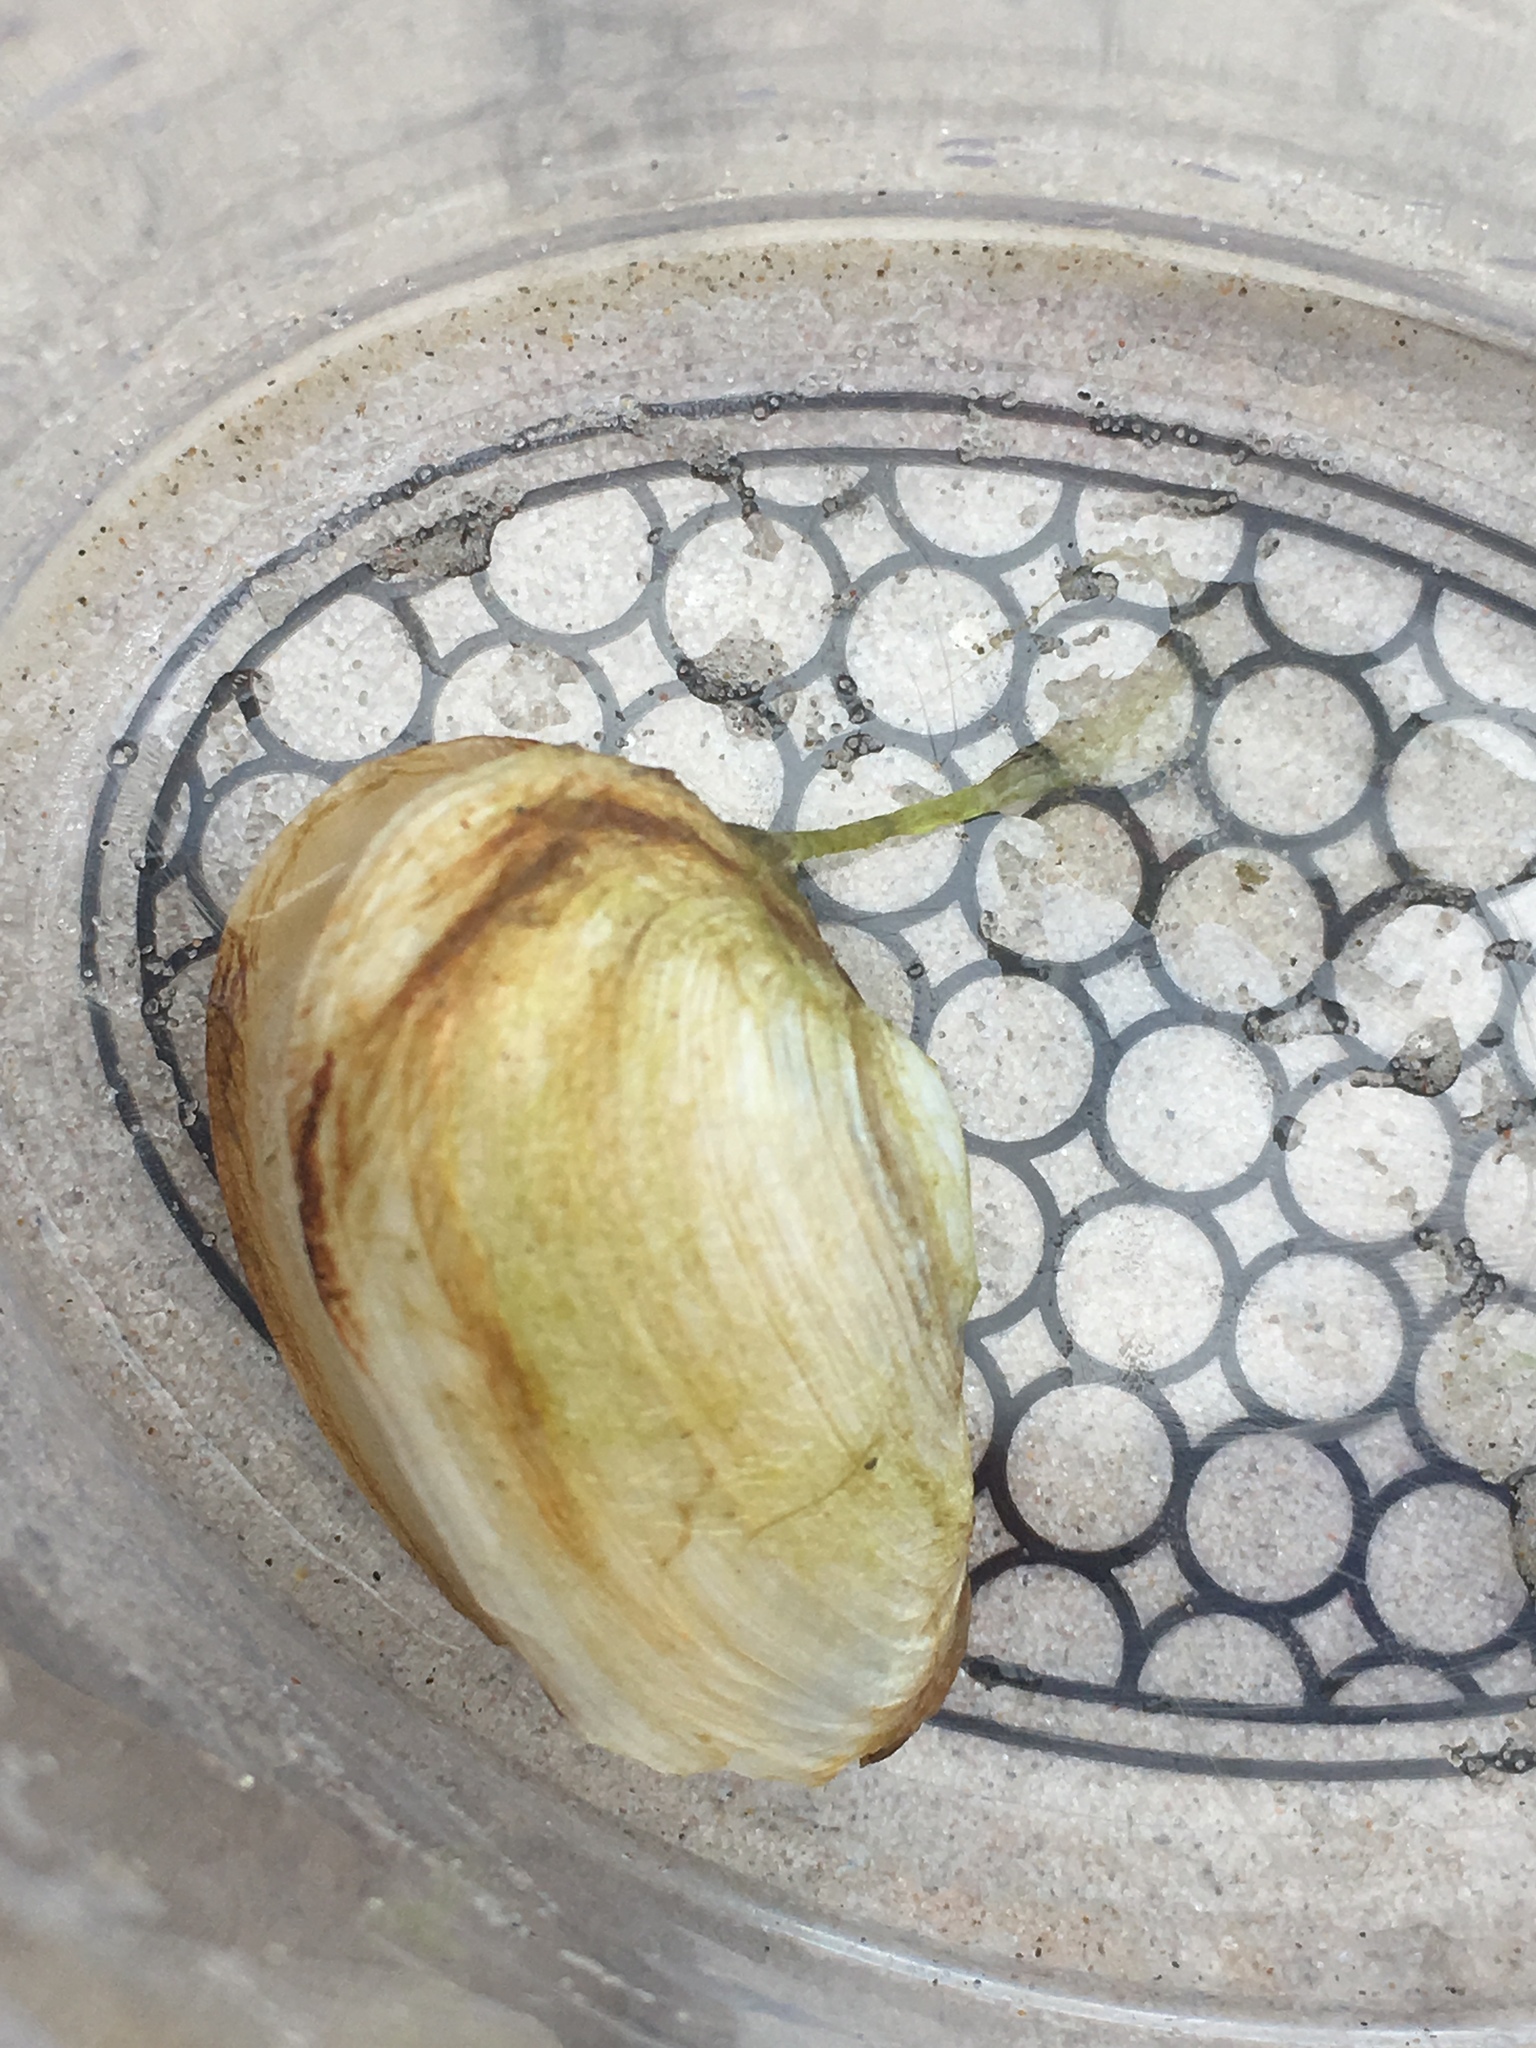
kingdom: Animalia
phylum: Mollusca
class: Bivalvia
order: Myida
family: Myidae
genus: Mya
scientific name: Mya arenaria
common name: Soft-shelled clam
